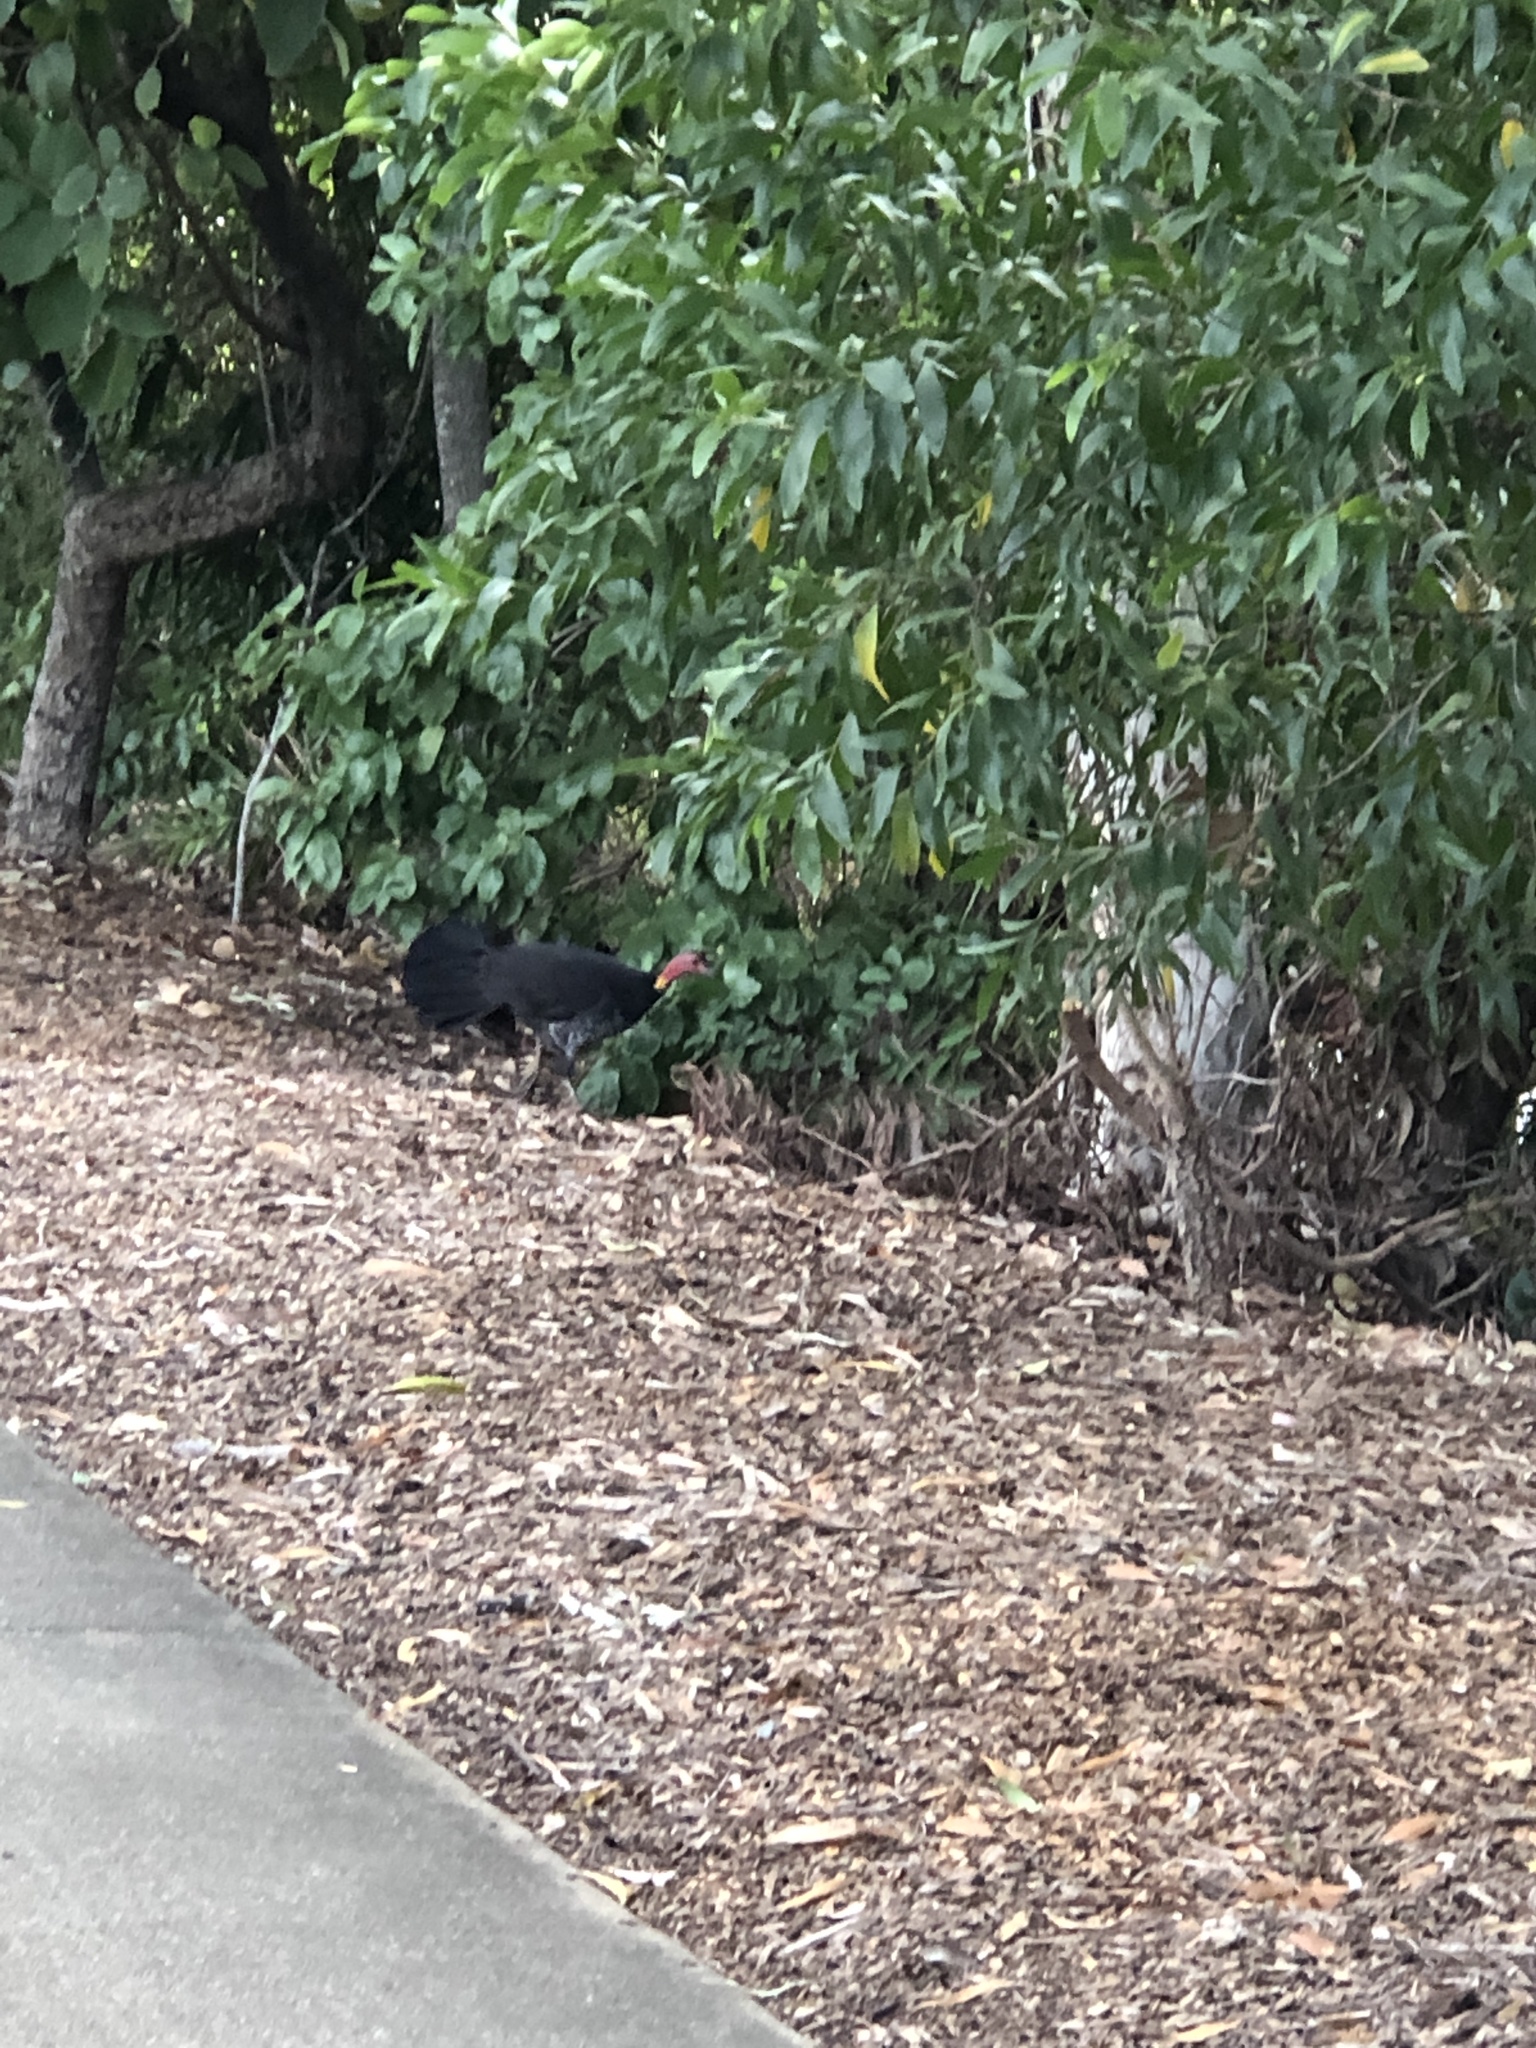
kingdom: Animalia
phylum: Chordata
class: Aves
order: Galliformes
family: Megapodiidae
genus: Alectura
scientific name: Alectura lathami
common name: Australian brushturkey
